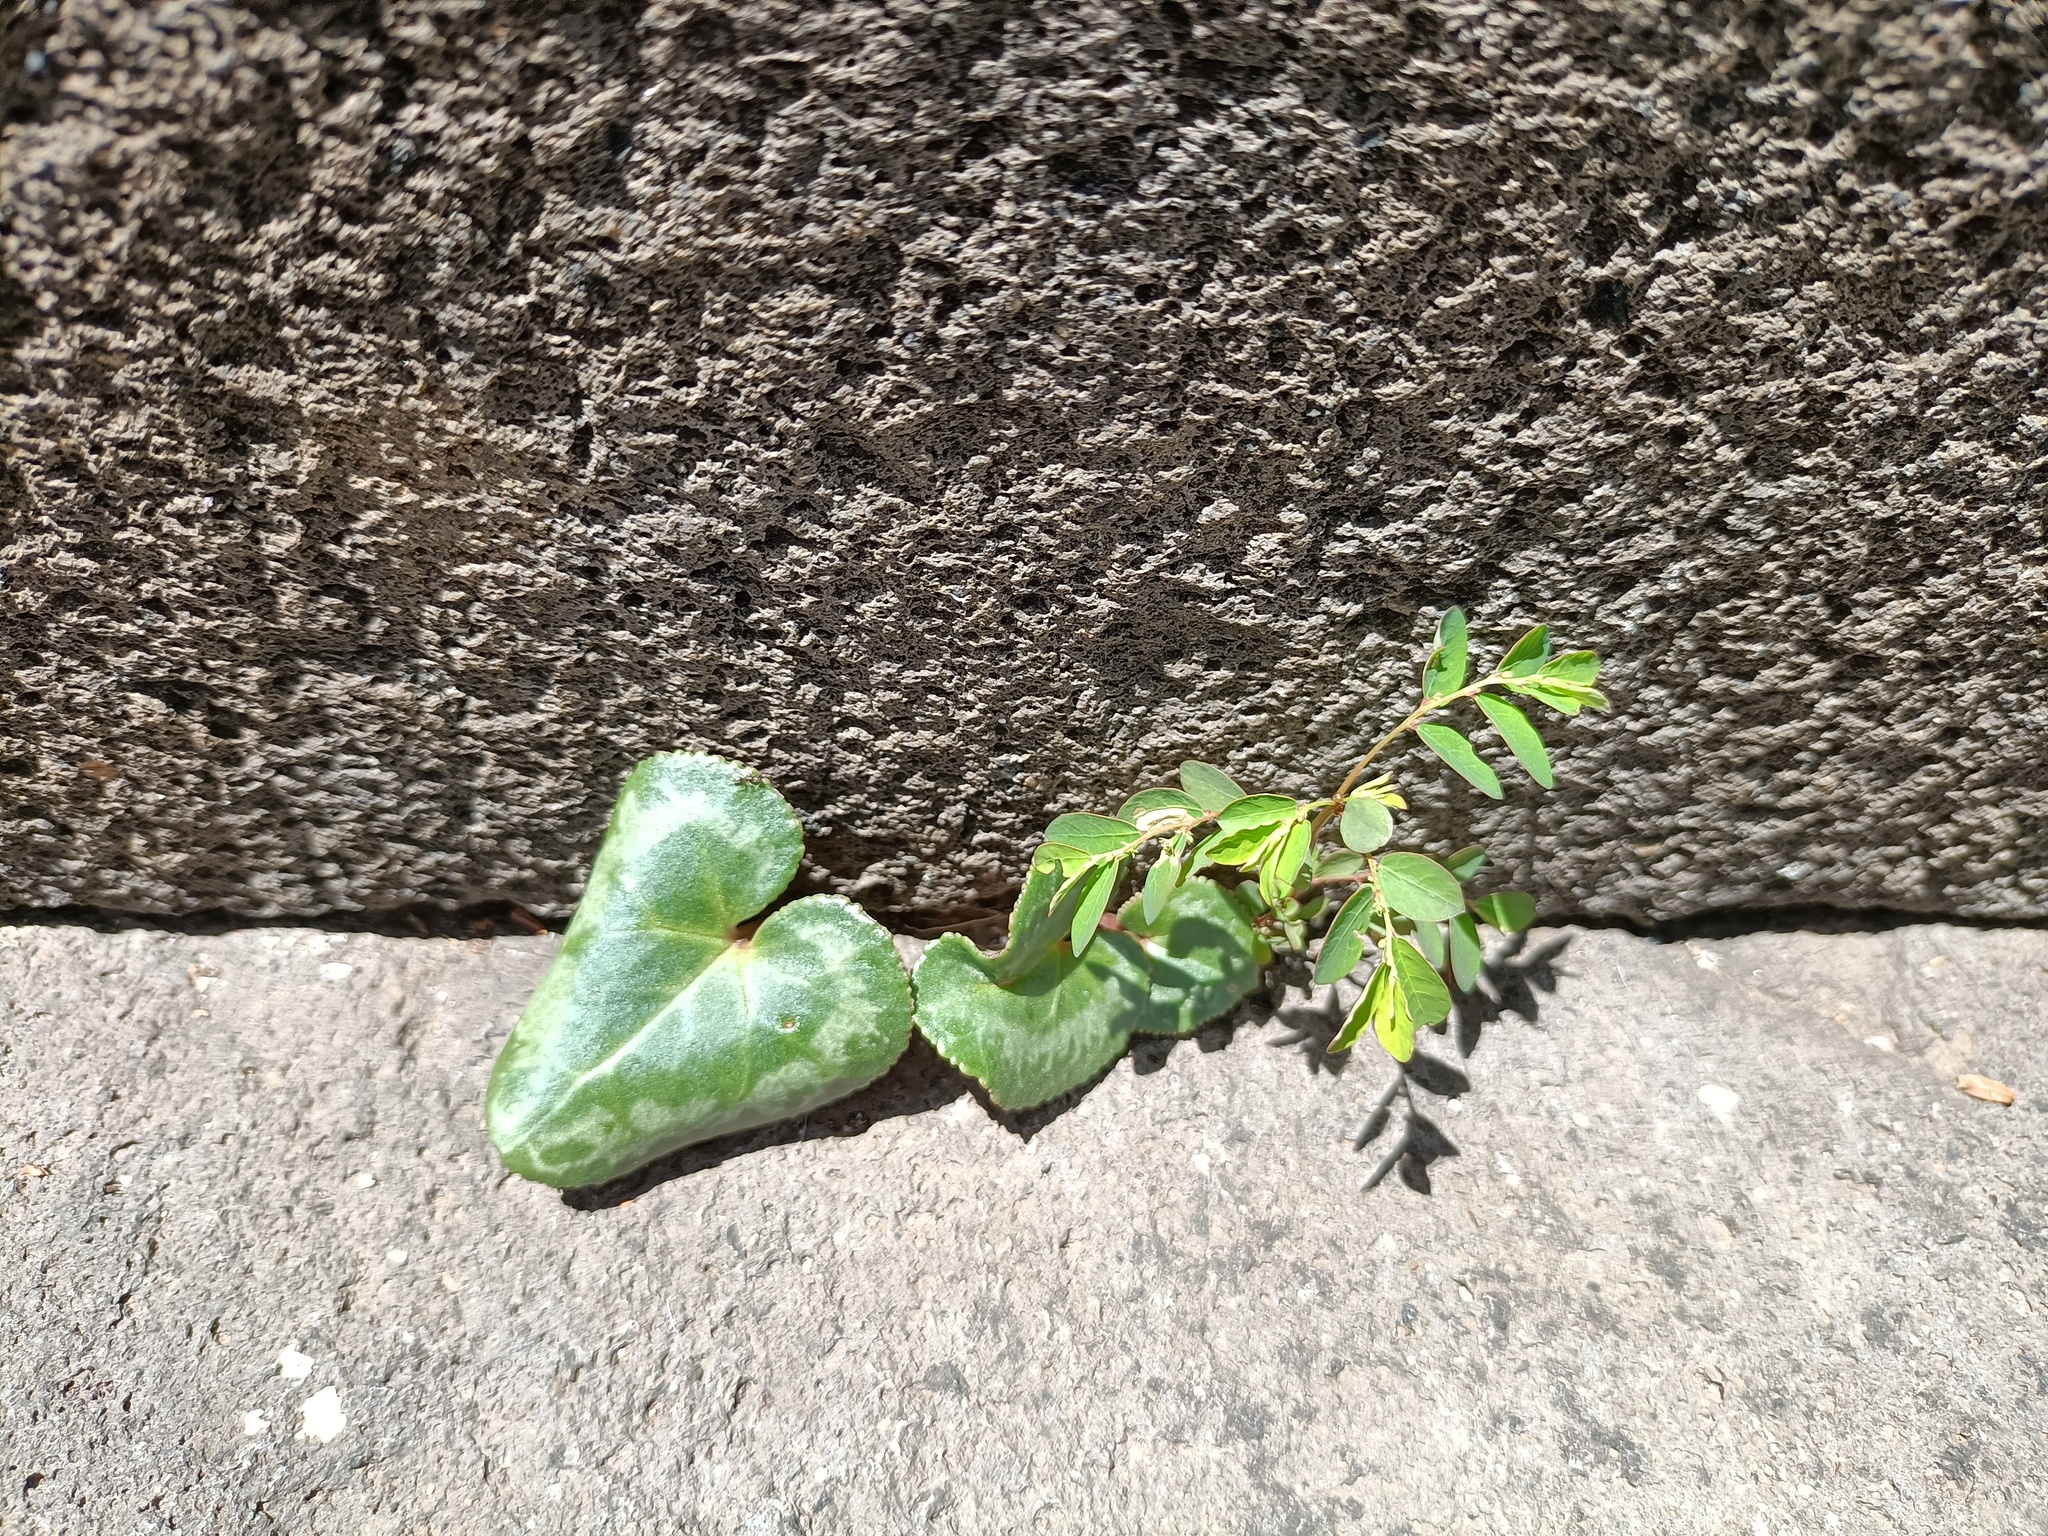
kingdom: Plantae
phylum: Tracheophyta
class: Magnoliopsida
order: Ericales
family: Primulaceae
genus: Cyclamen
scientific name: Cyclamen persicum
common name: Florist's cyclamen
